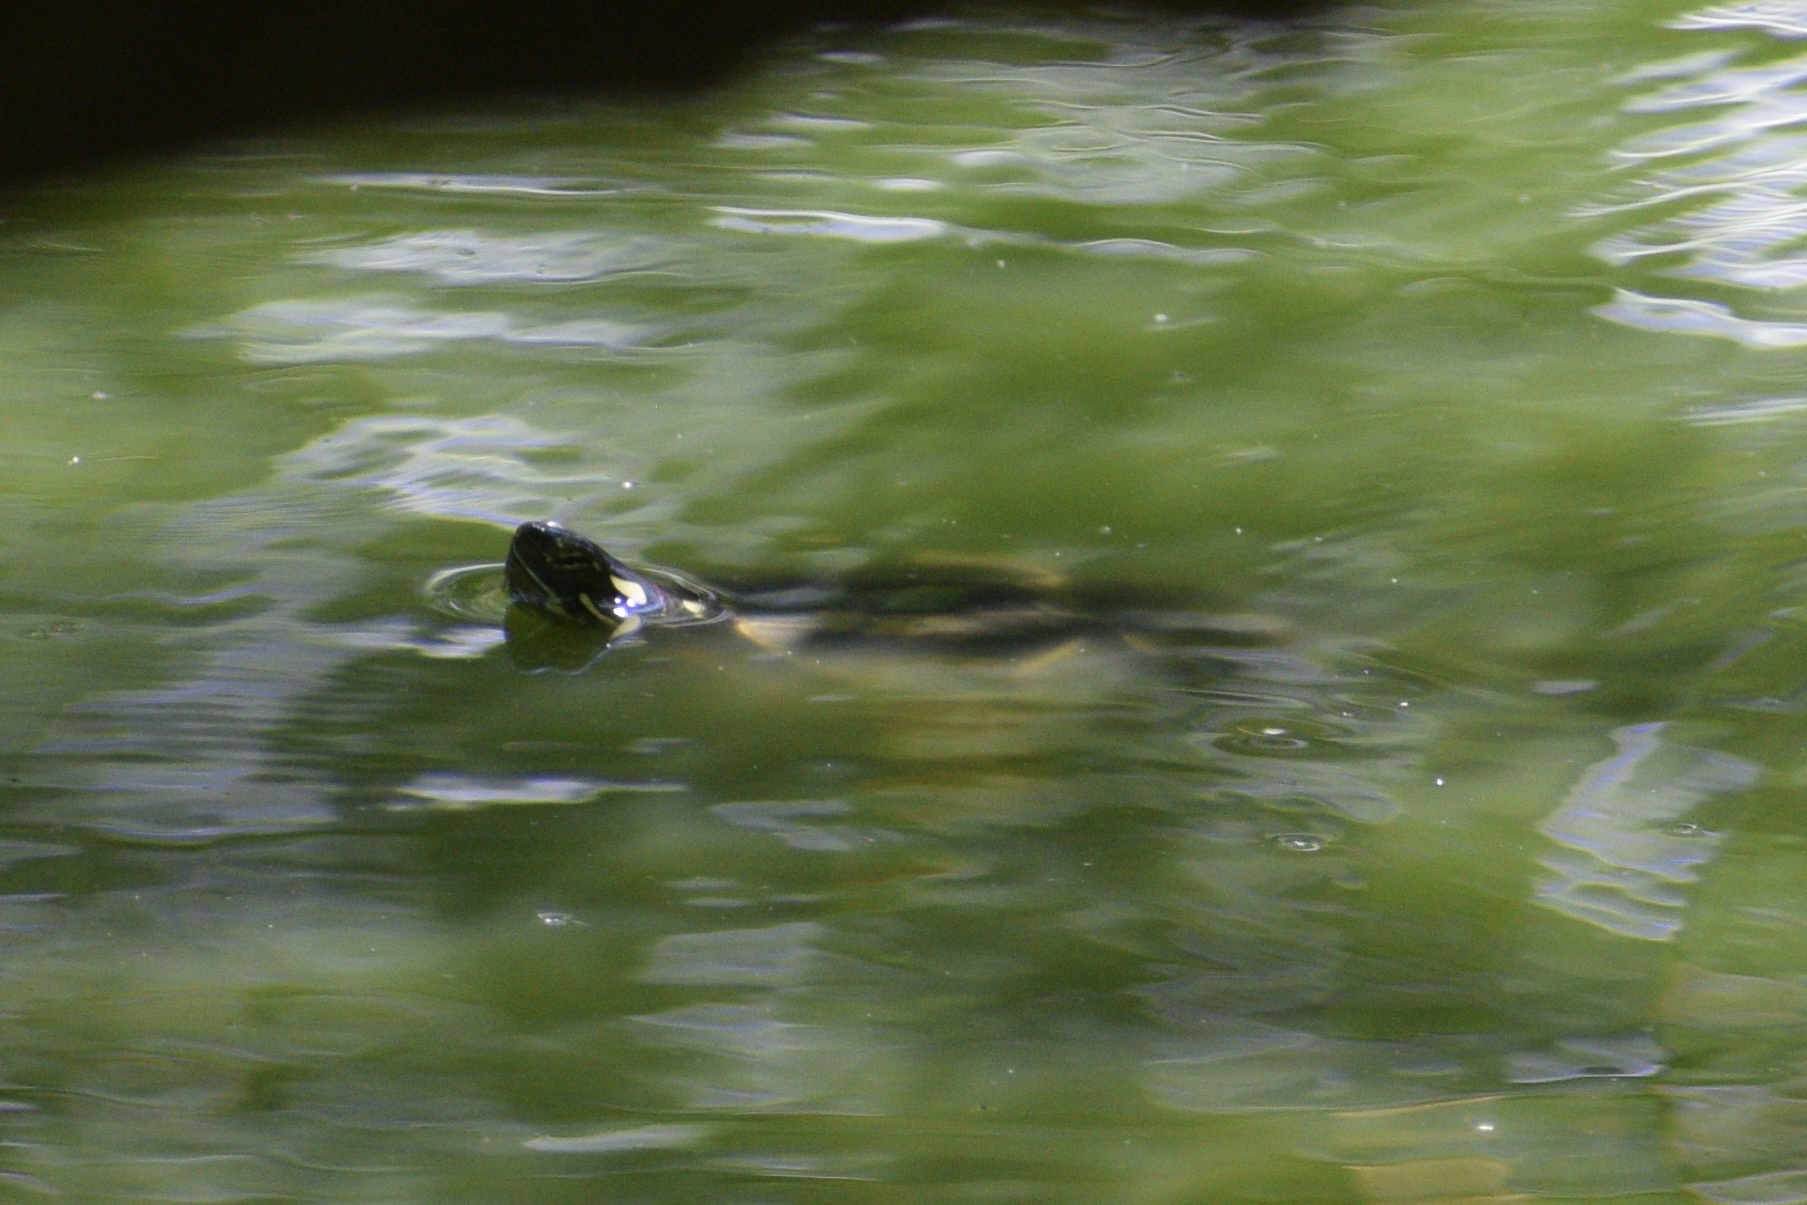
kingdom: Animalia
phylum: Chordata
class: Testudines
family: Emydidae
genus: Chrysemys
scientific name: Chrysemys picta
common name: Painted turtle
